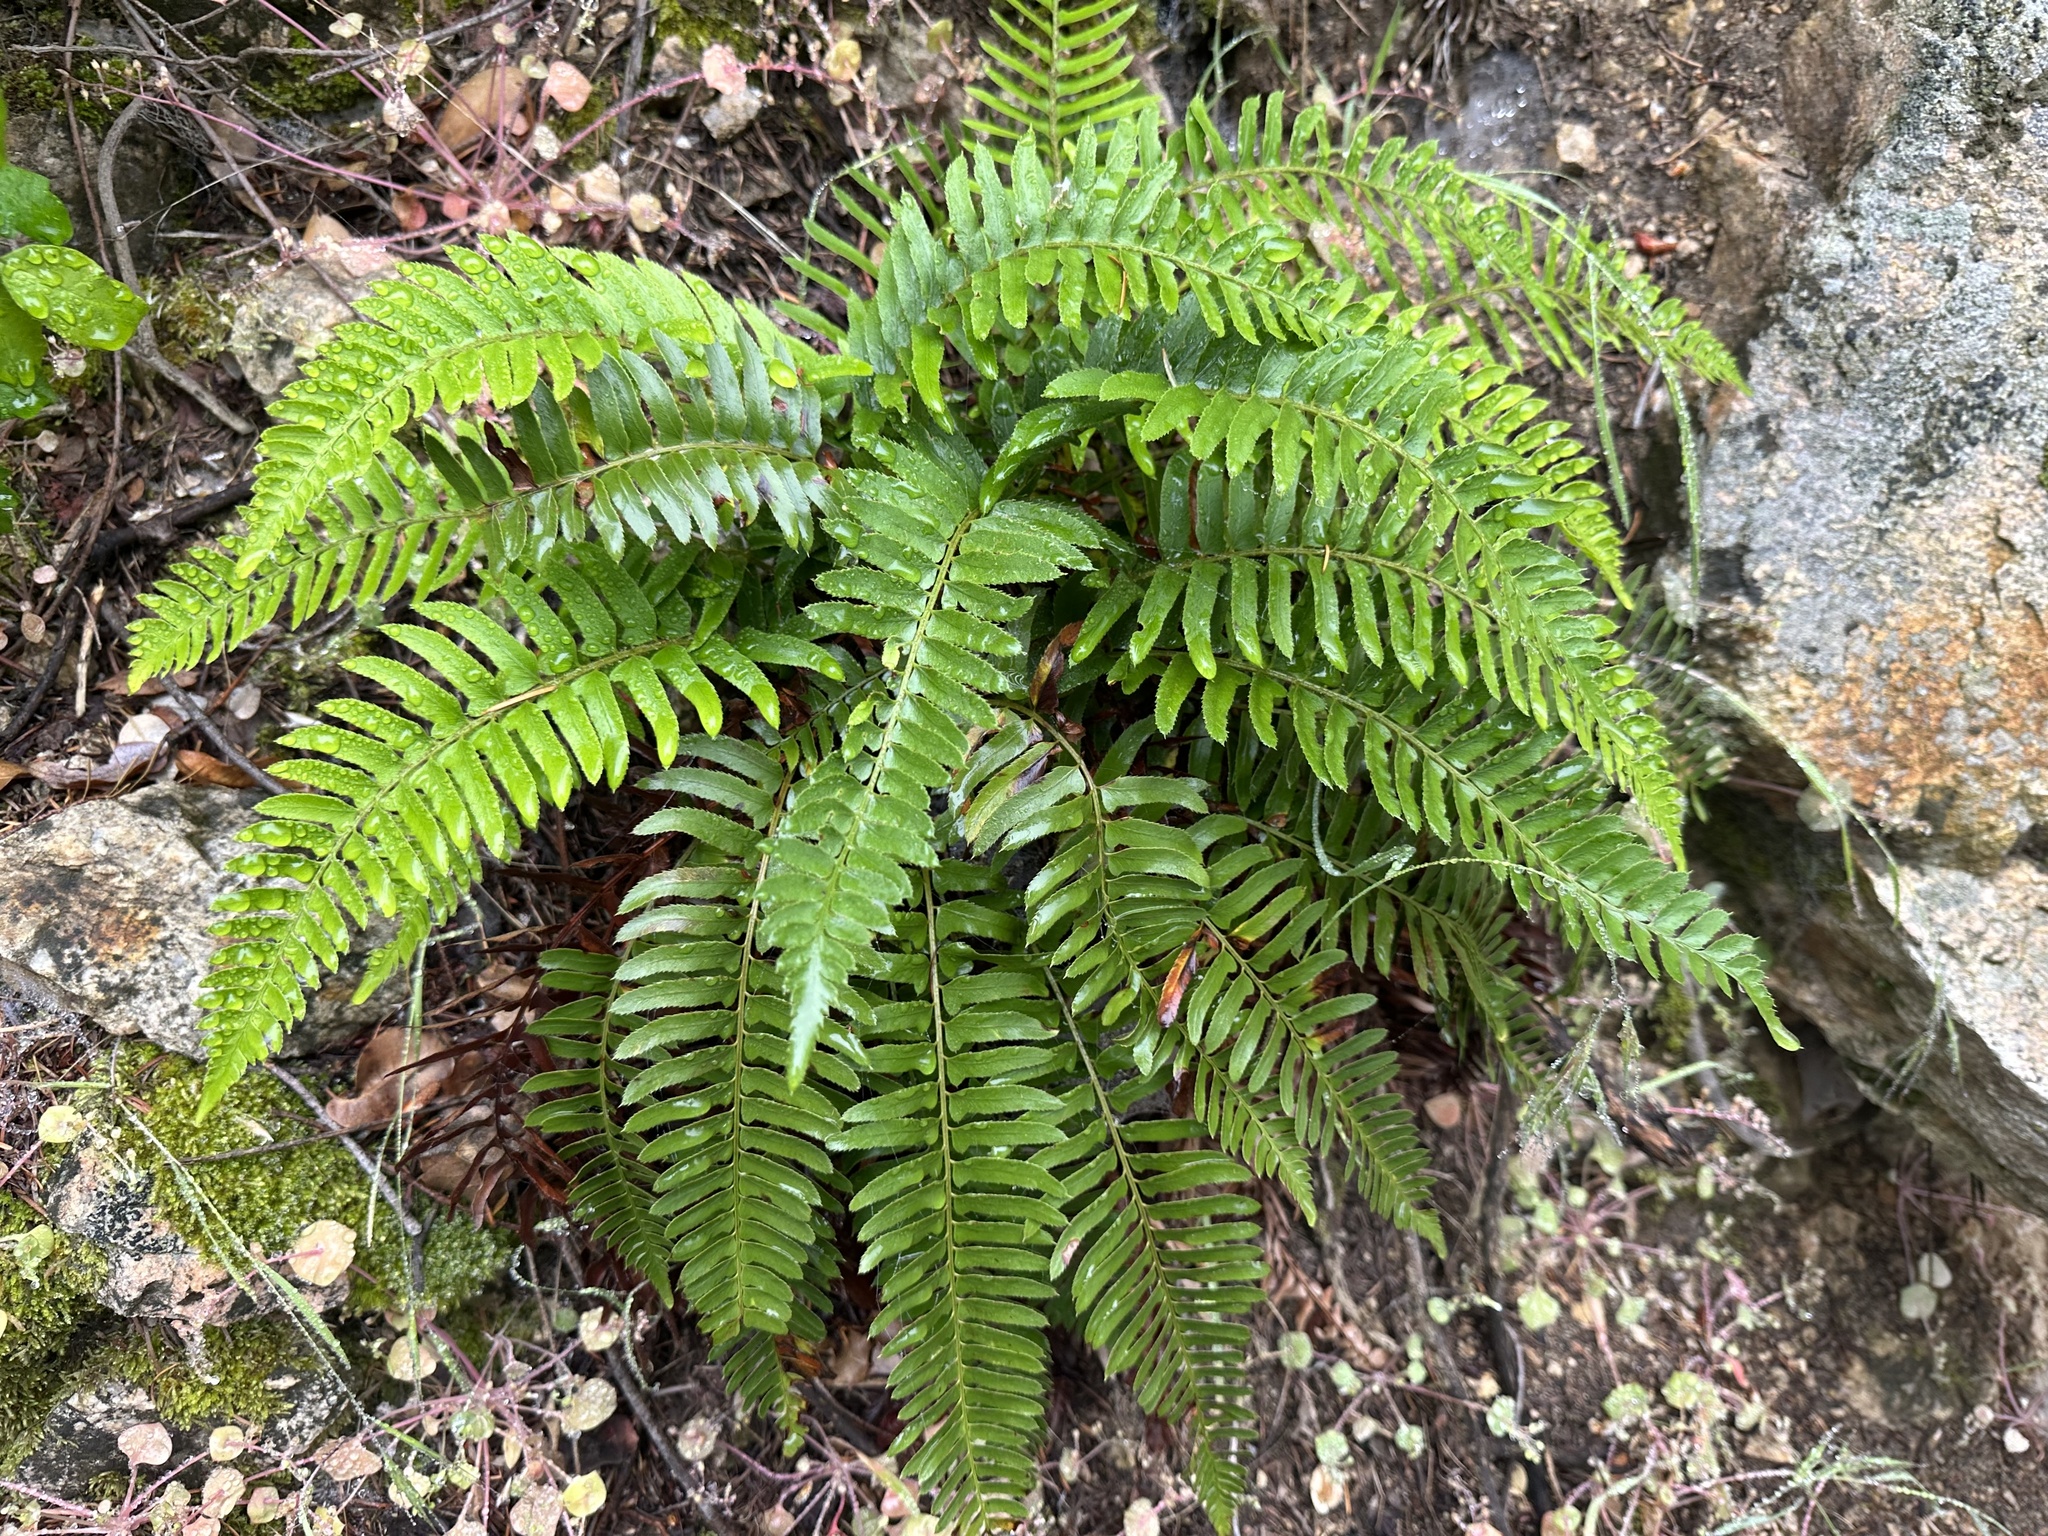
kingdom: Plantae
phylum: Tracheophyta
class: Polypodiopsida
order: Polypodiales
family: Dryopteridaceae
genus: Polystichum
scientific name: Polystichum imbricans
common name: Dwarf western sword fern
